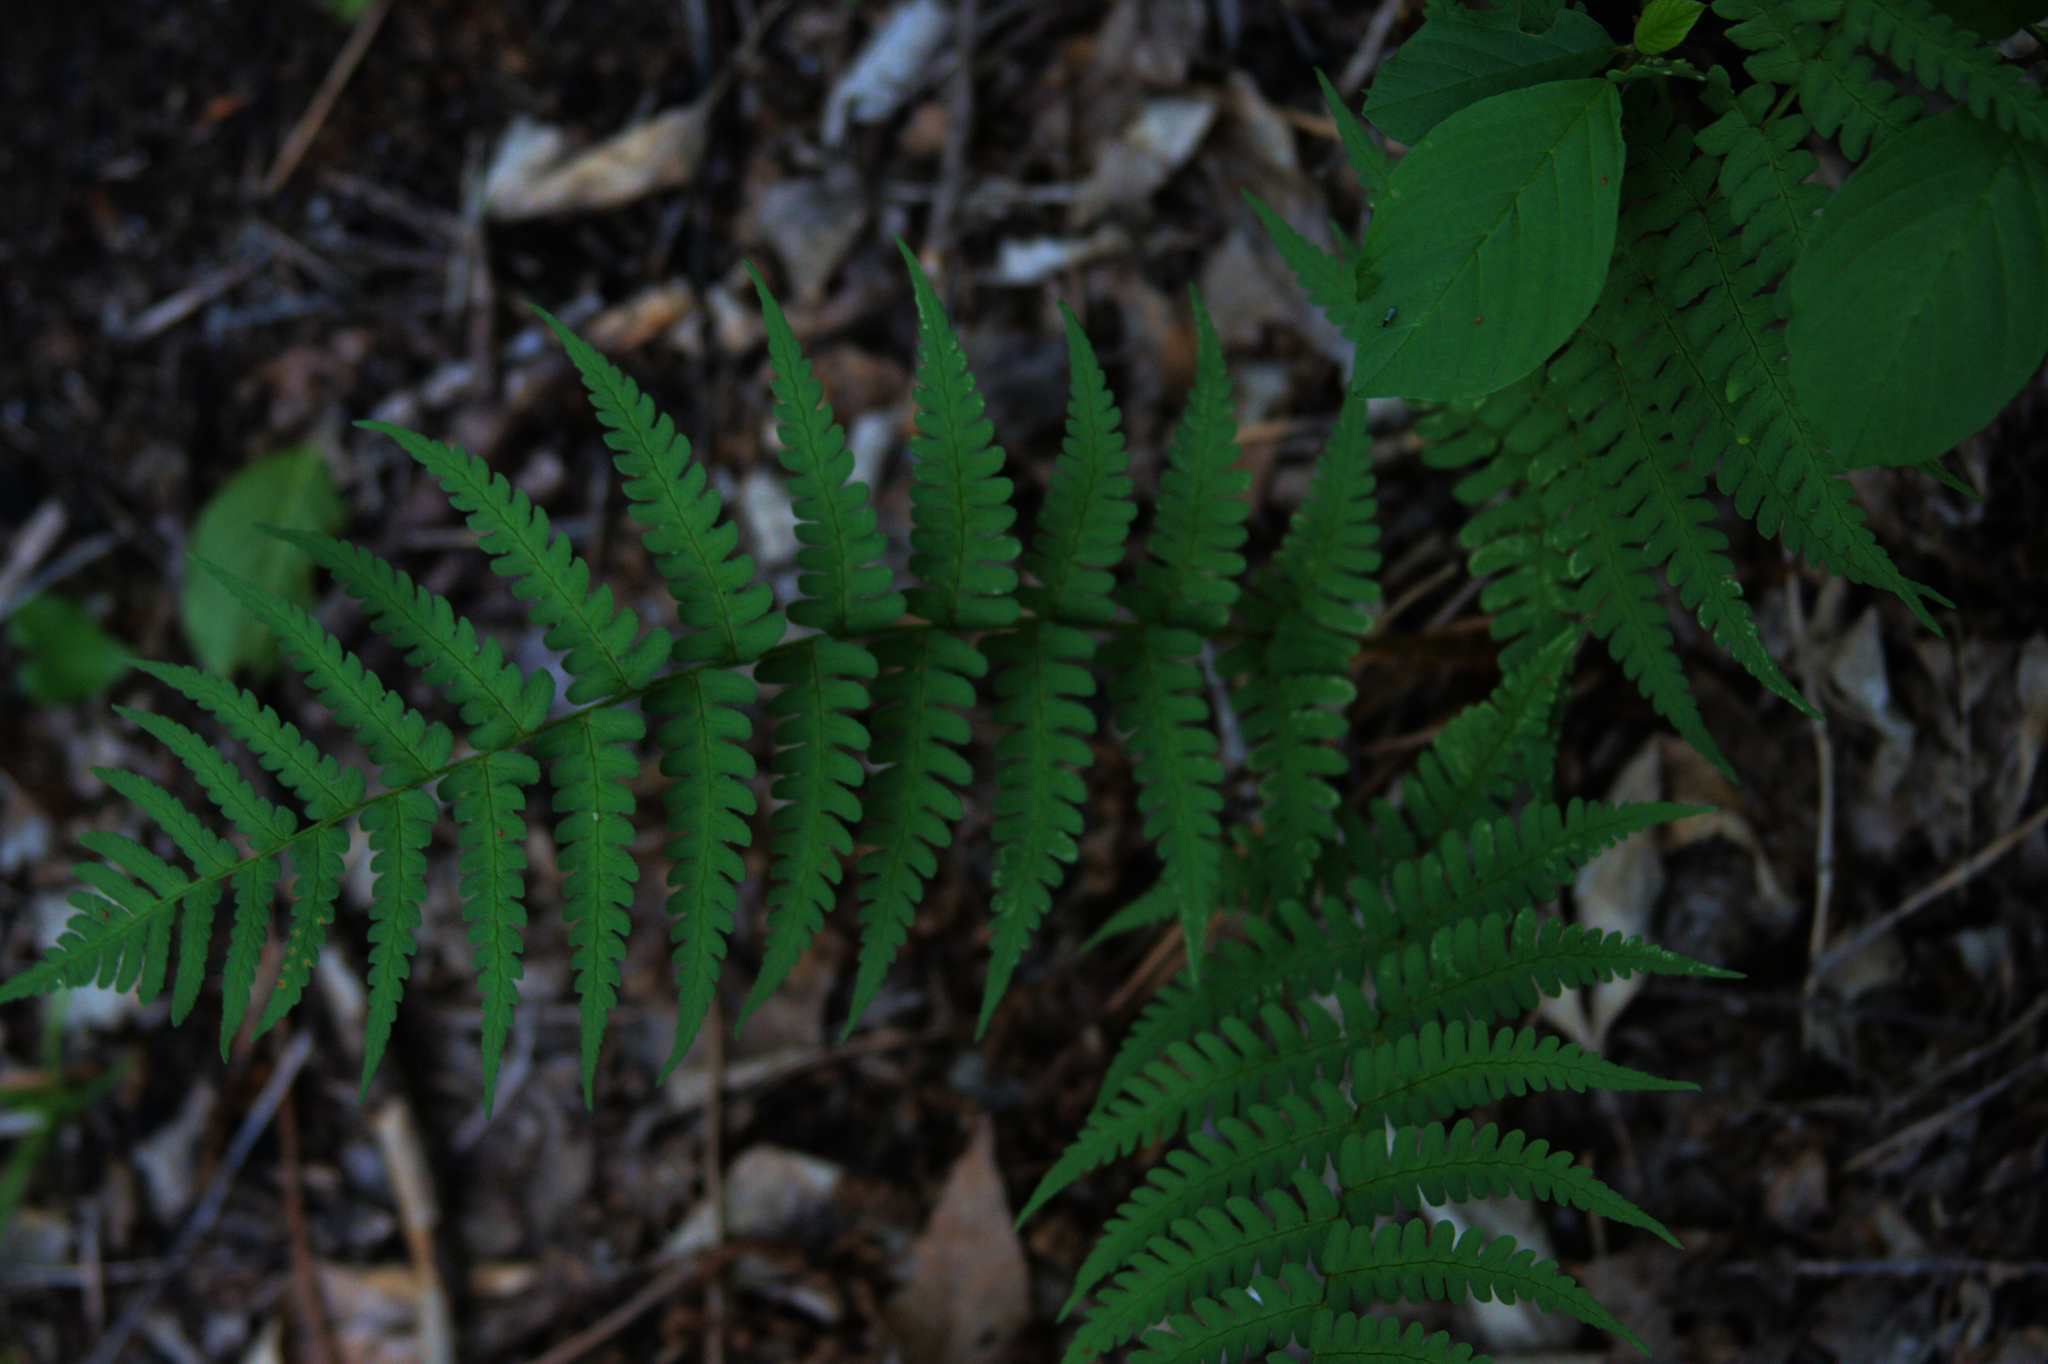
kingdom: Plantae
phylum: Tracheophyta
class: Polypodiopsida
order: Polypodiales
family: Dryopteridaceae
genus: Dryopteris
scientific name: Dryopteris marginalis
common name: Marginal wood fern
